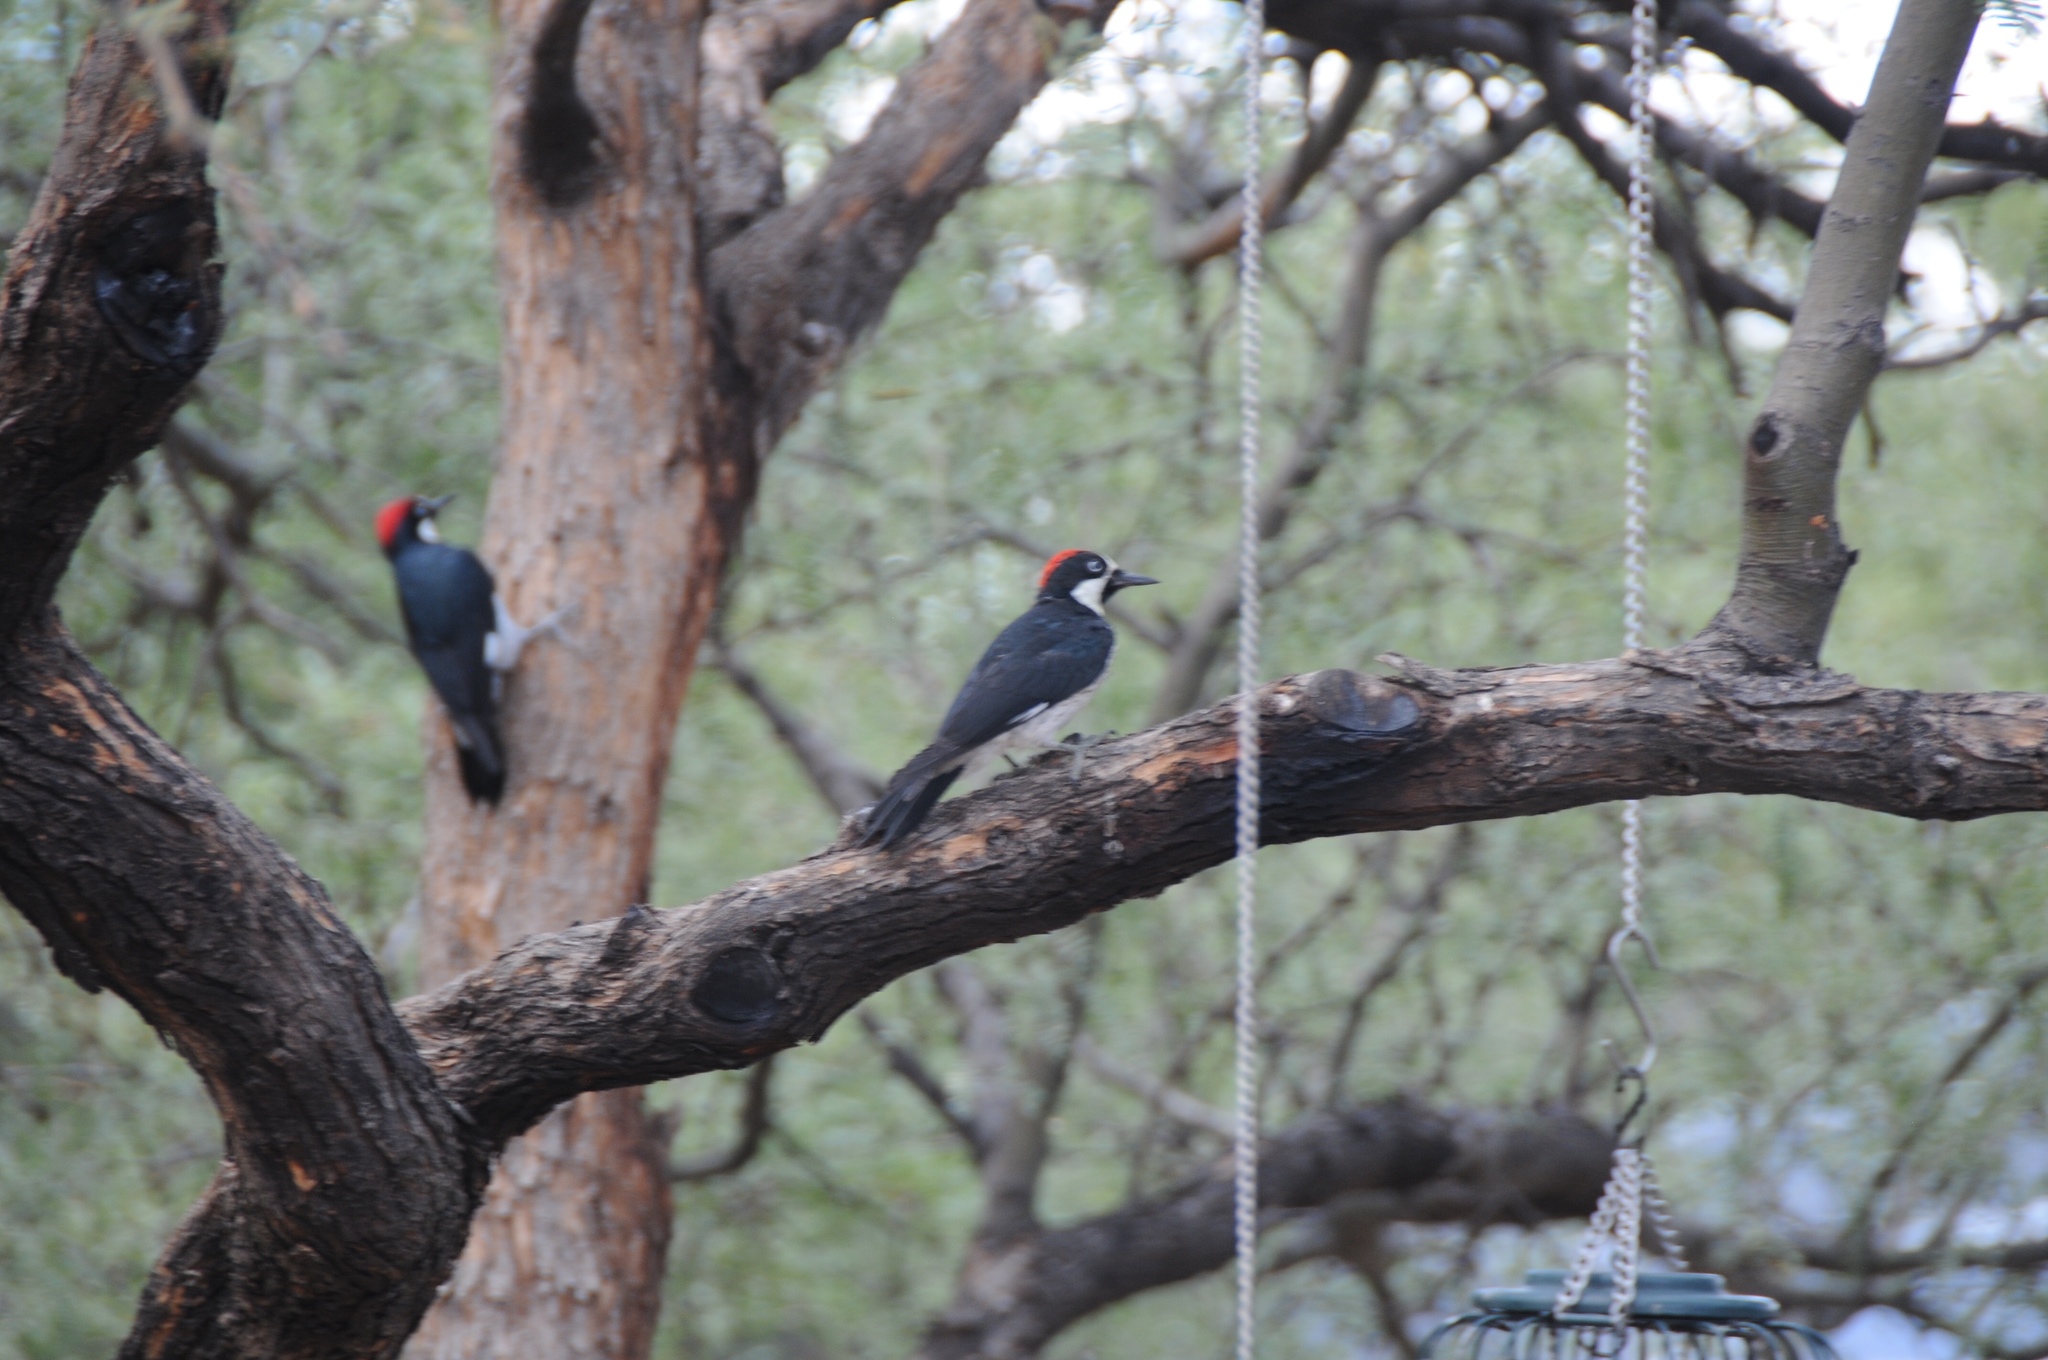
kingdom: Animalia
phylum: Chordata
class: Aves
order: Piciformes
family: Picidae
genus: Melanerpes
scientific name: Melanerpes formicivorus
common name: Acorn woodpecker
